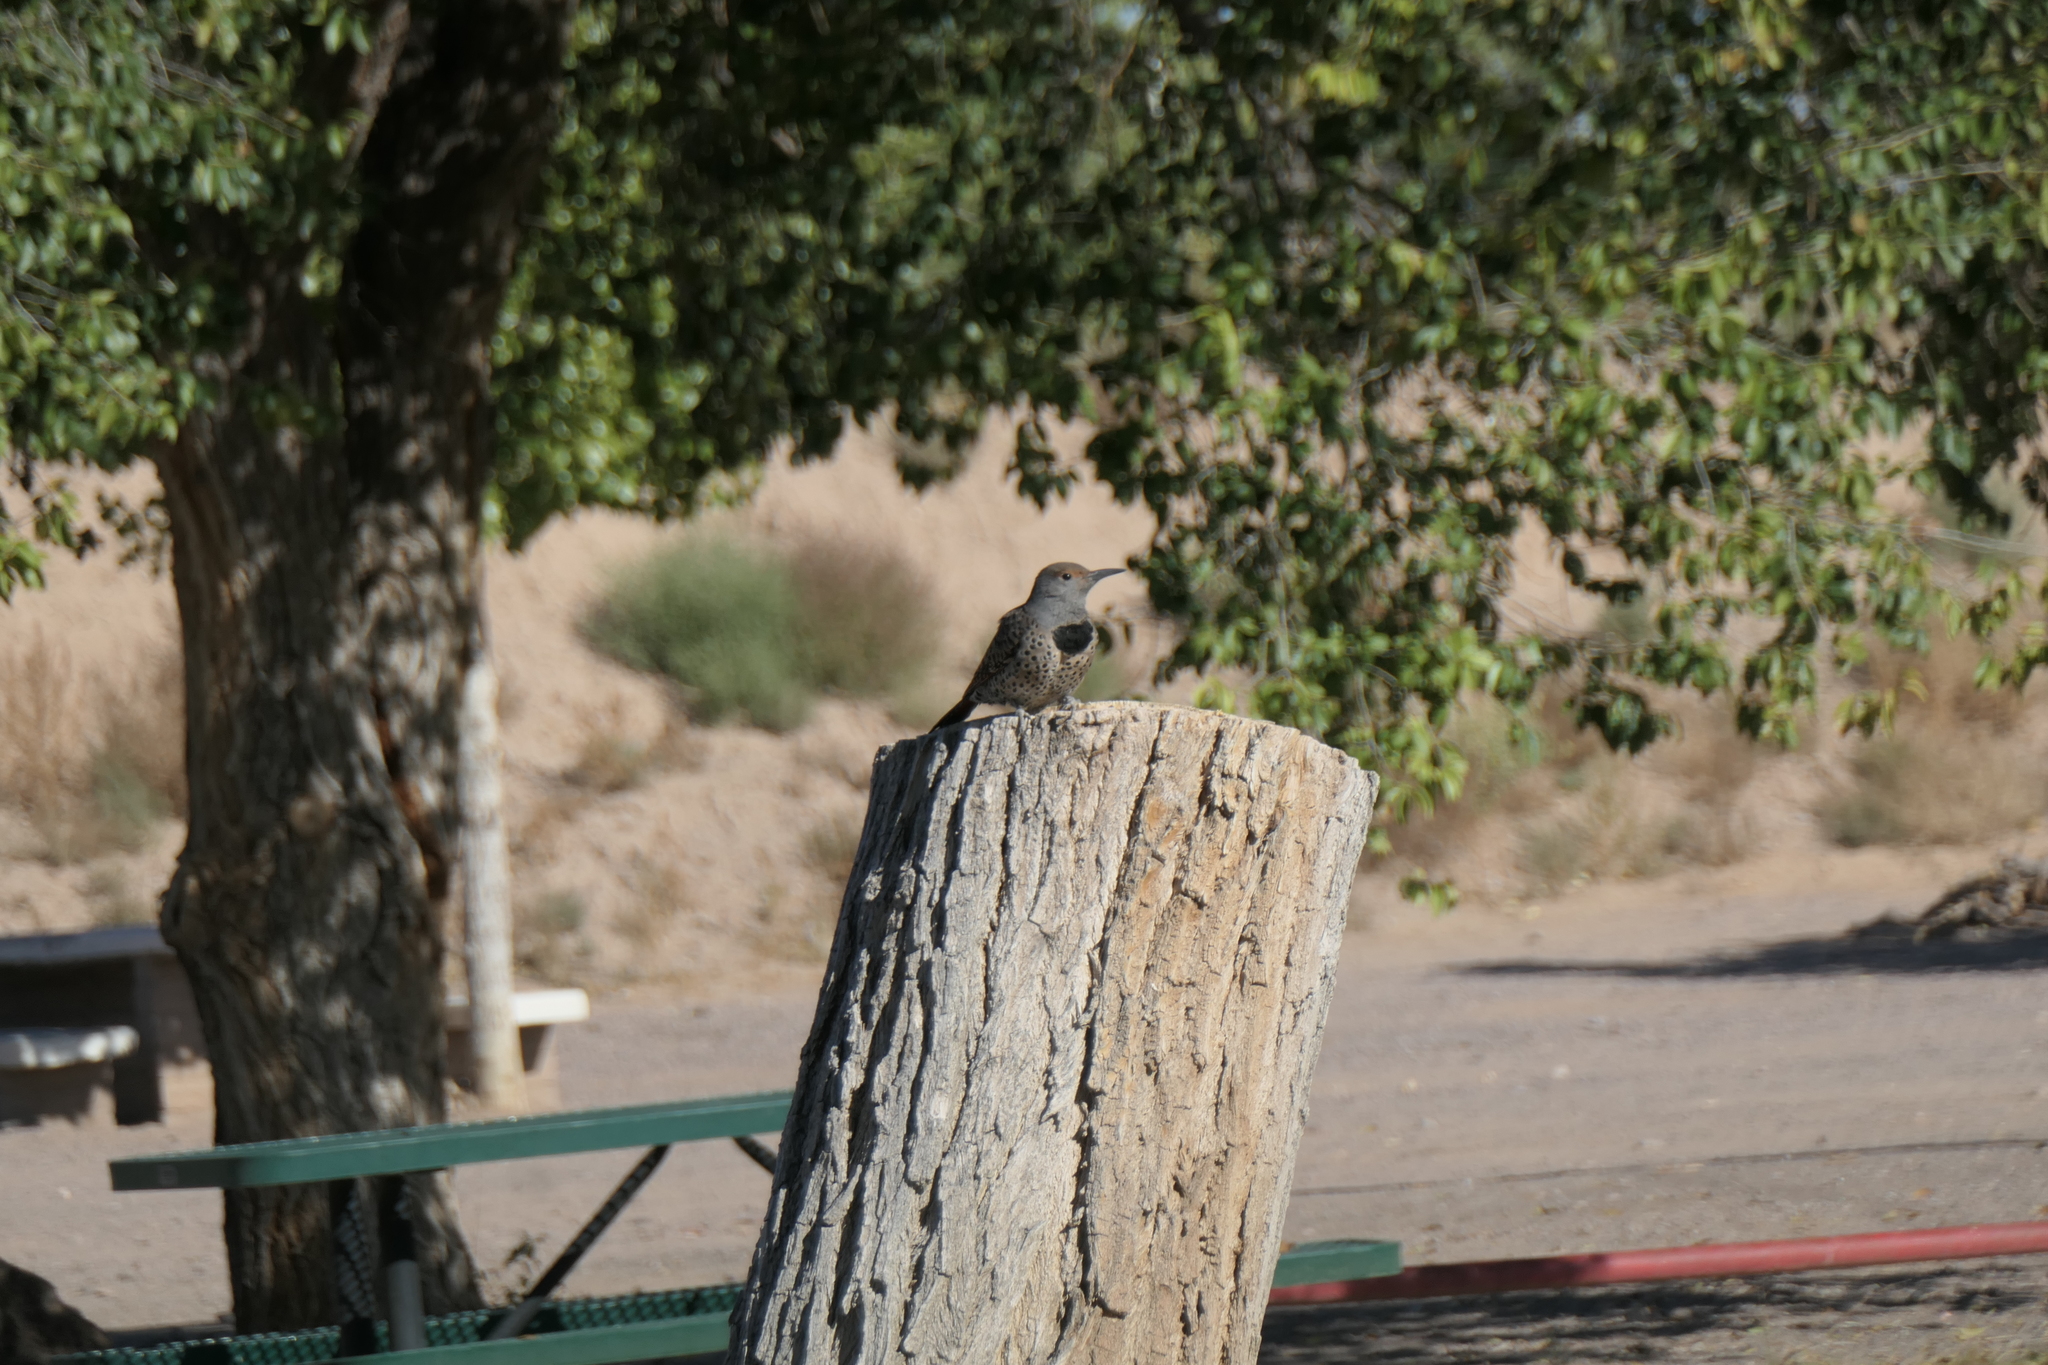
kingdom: Animalia
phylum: Chordata
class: Aves
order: Piciformes
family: Picidae
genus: Colaptes
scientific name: Colaptes auratus
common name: Northern flicker
